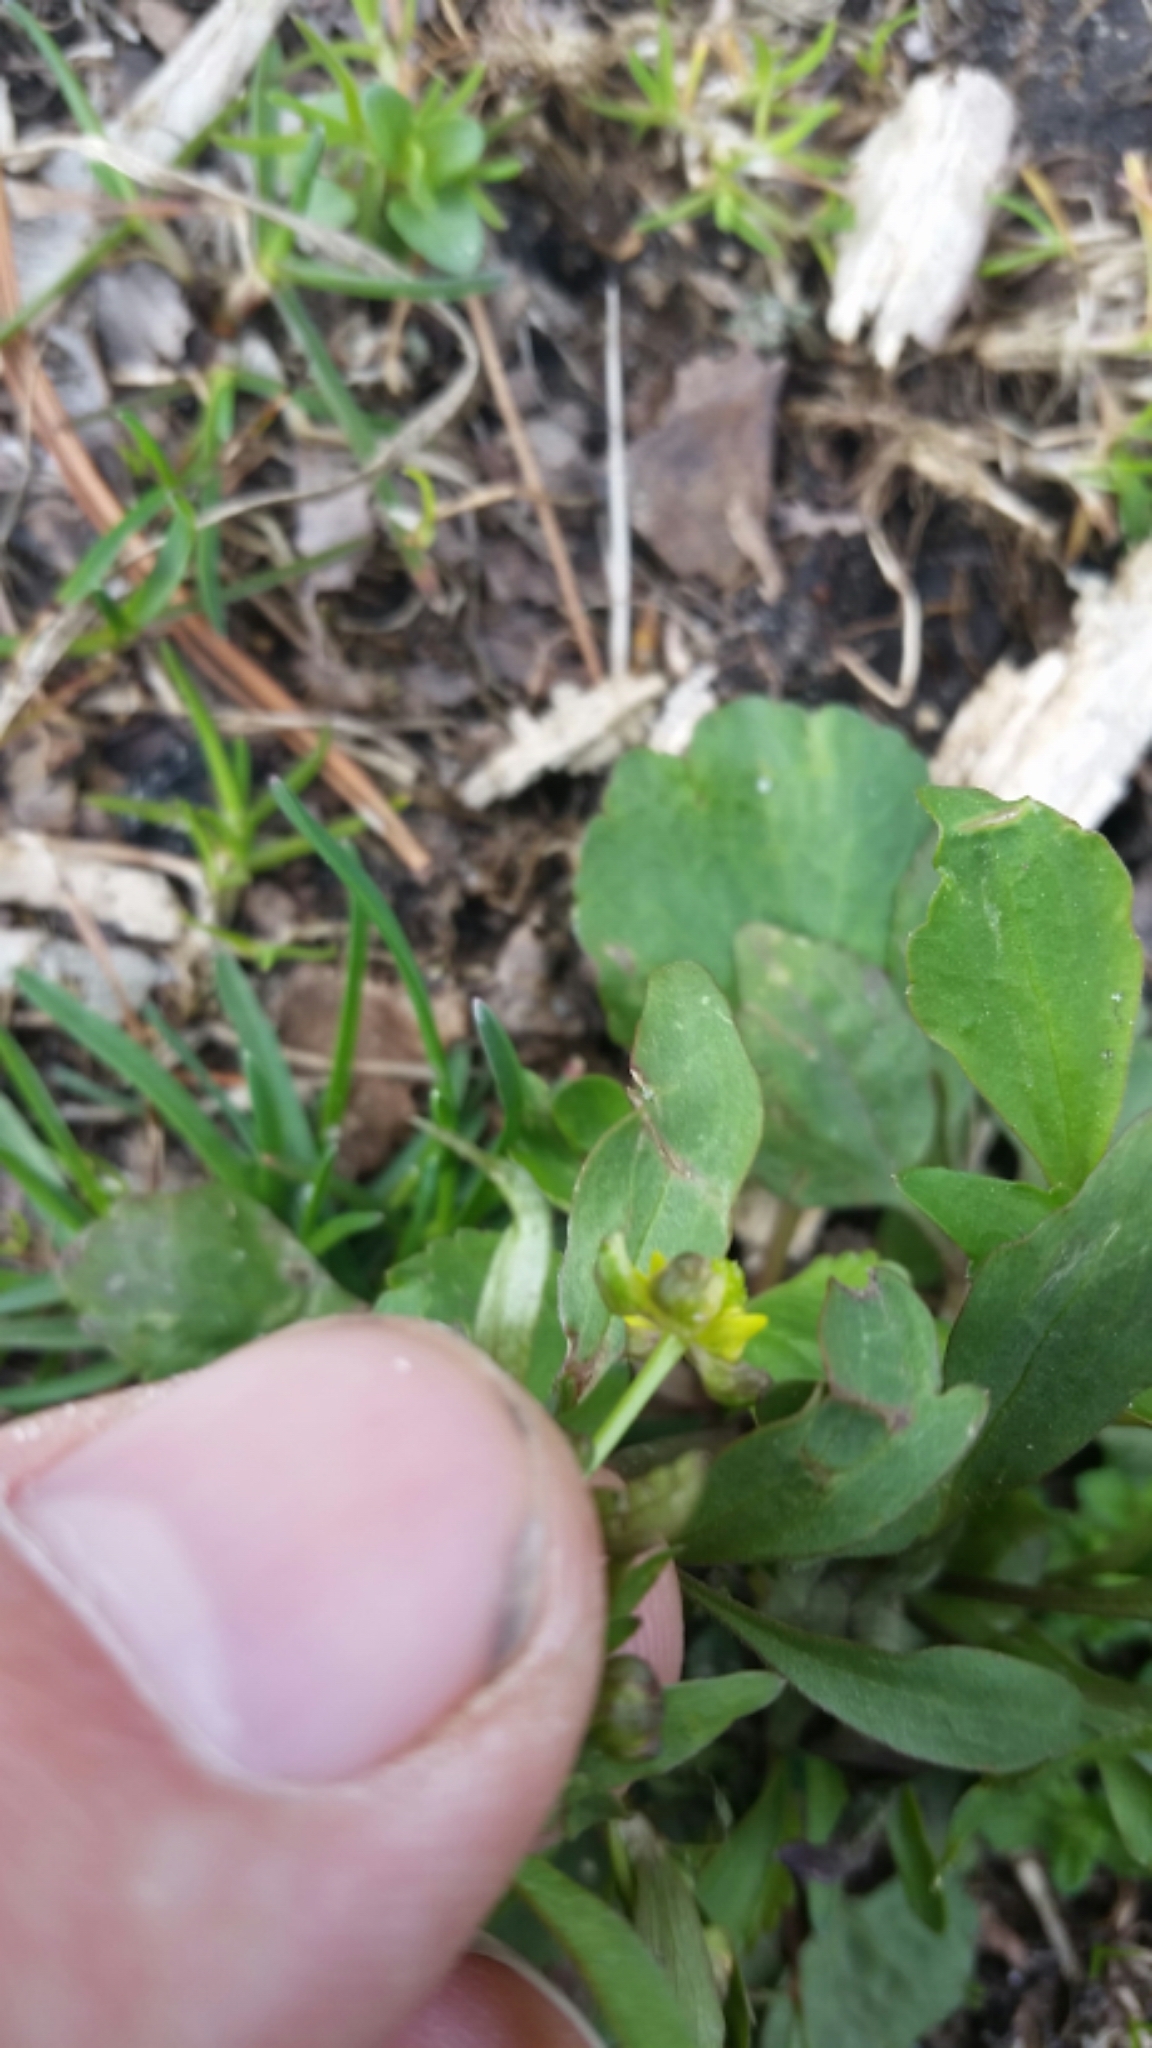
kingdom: Plantae
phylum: Tracheophyta
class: Magnoliopsida
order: Ranunculales
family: Ranunculaceae
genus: Ranunculus
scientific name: Ranunculus abortivus
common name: Early wood buttercup
